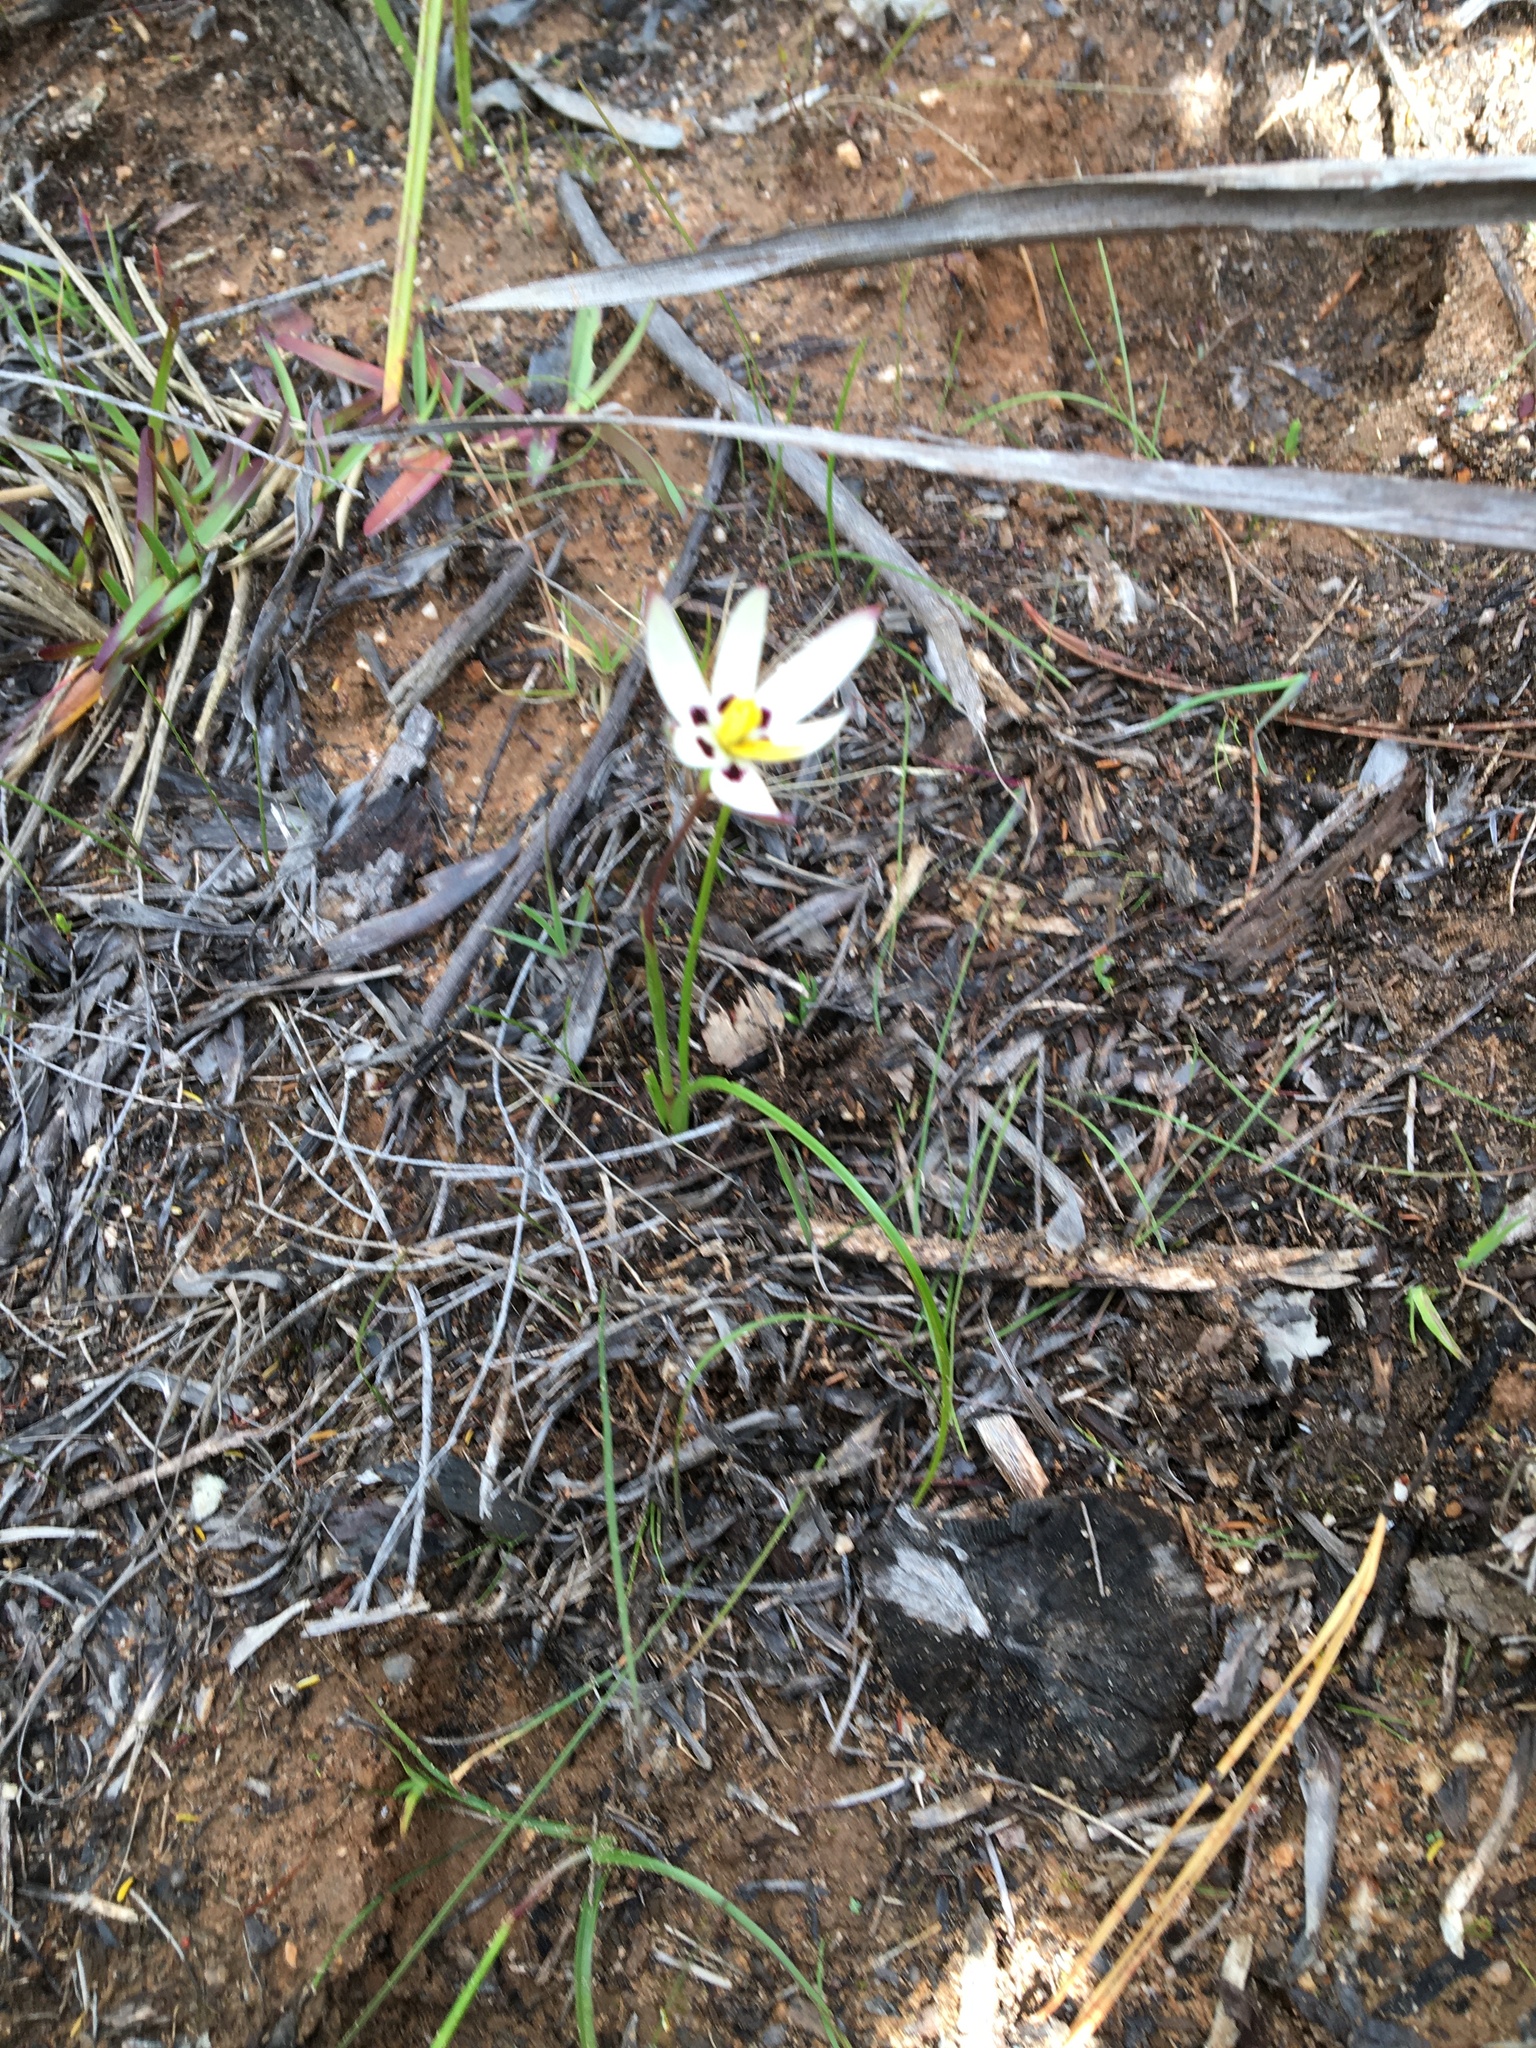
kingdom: Plantae
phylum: Tracheophyta
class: Liliopsida
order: Asparagales
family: Hypoxidaceae
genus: Pauridia
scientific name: Pauridia capensis
